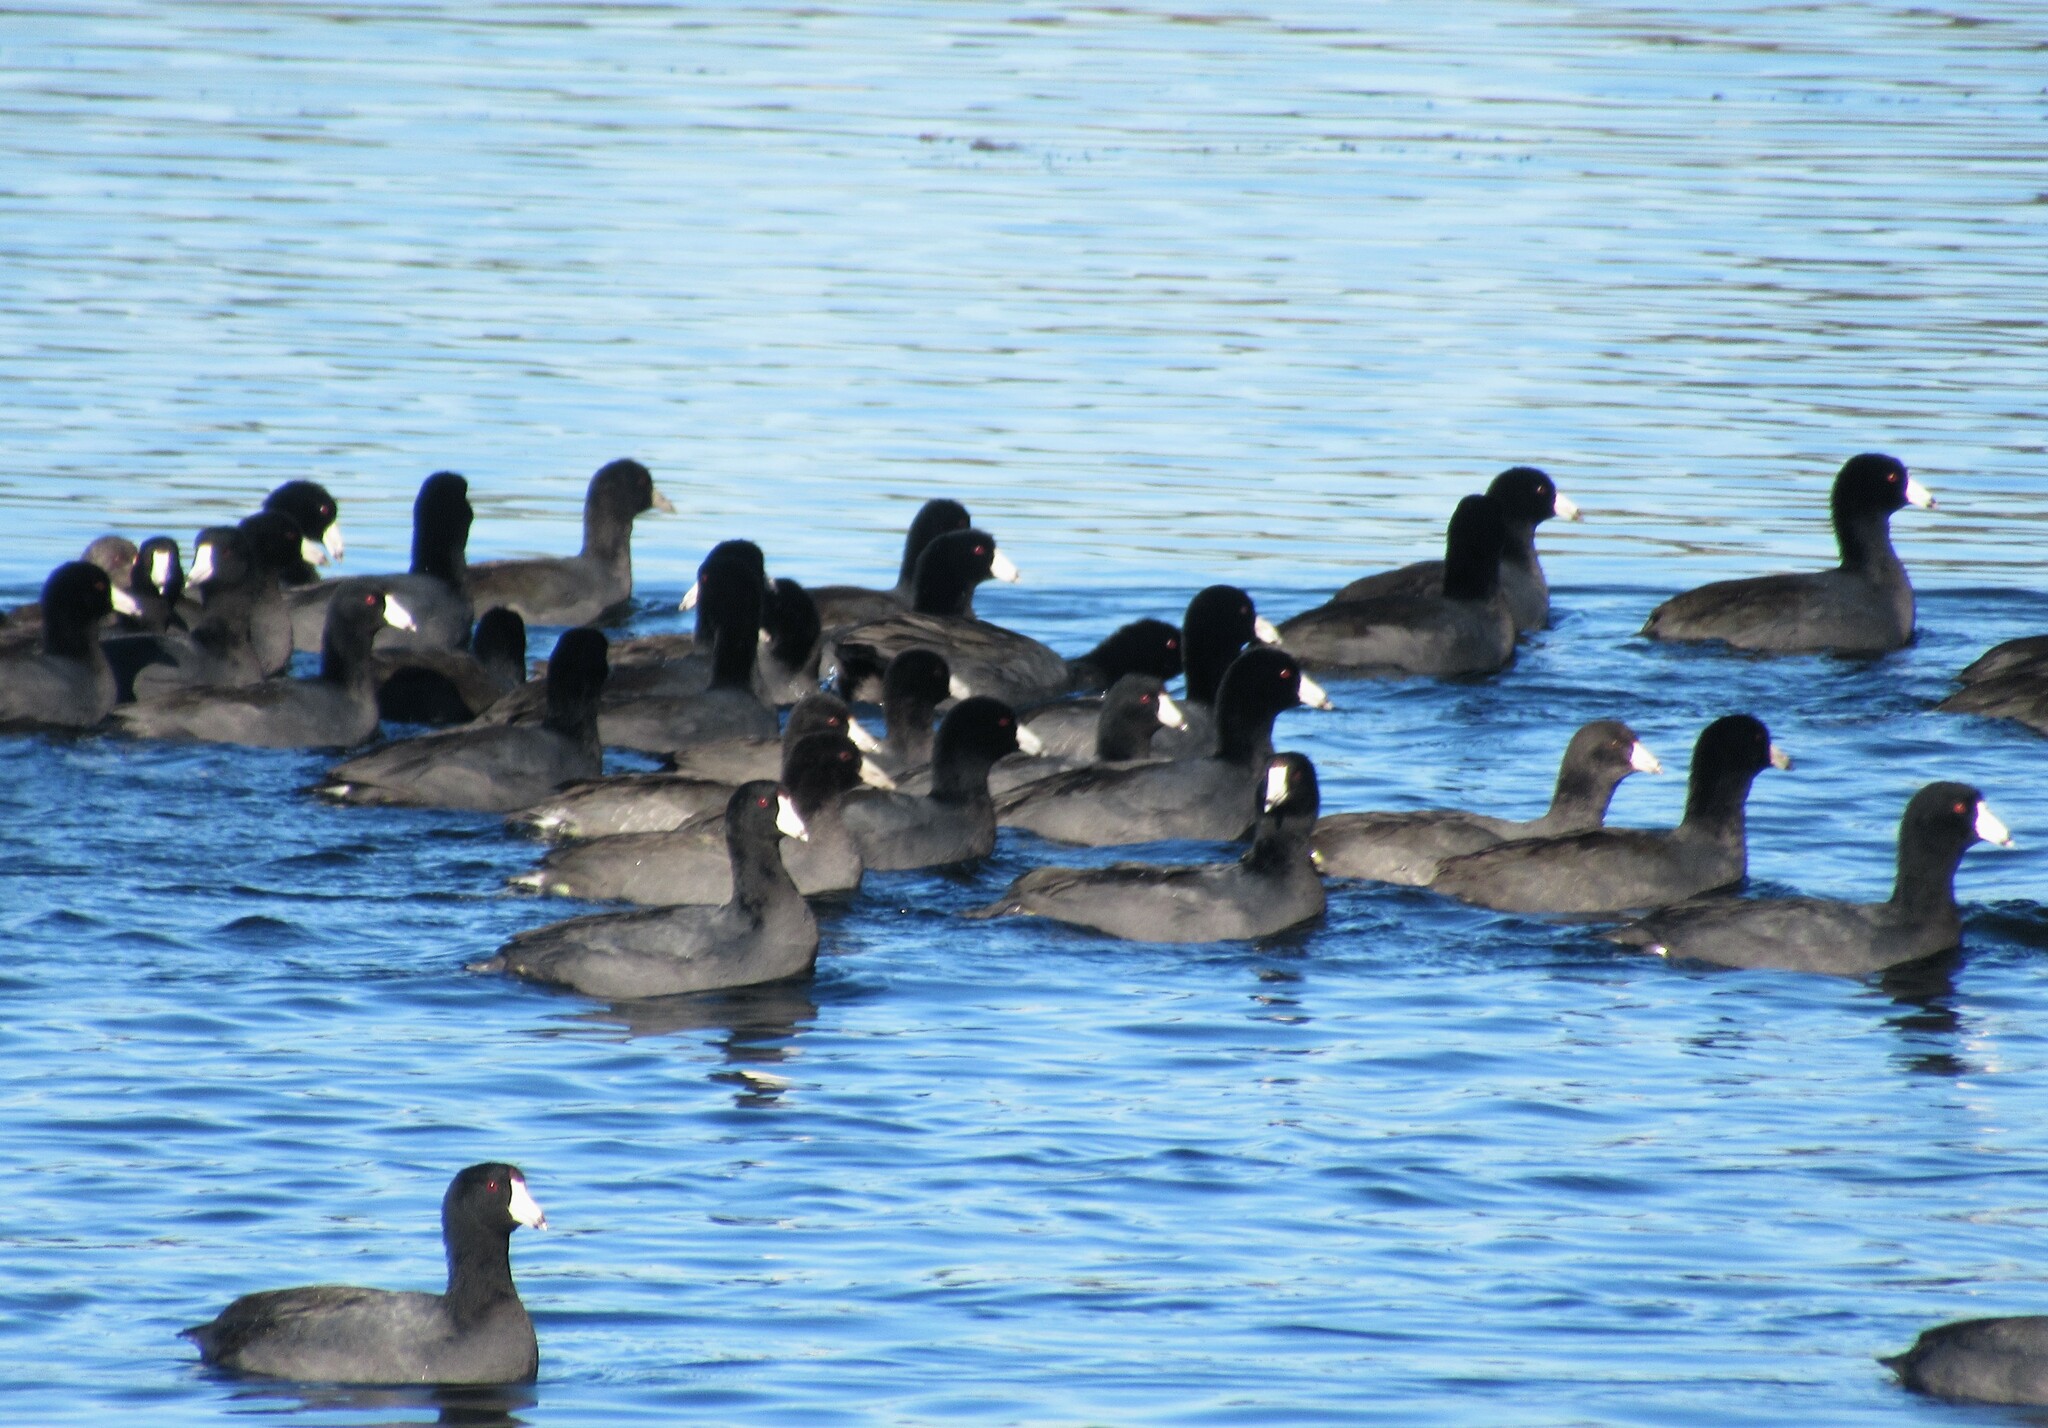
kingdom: Animalia
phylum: Chordata
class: Aves
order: Gruiformes
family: Rallidae
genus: Fulica
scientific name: Fulica americana
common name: American coot
